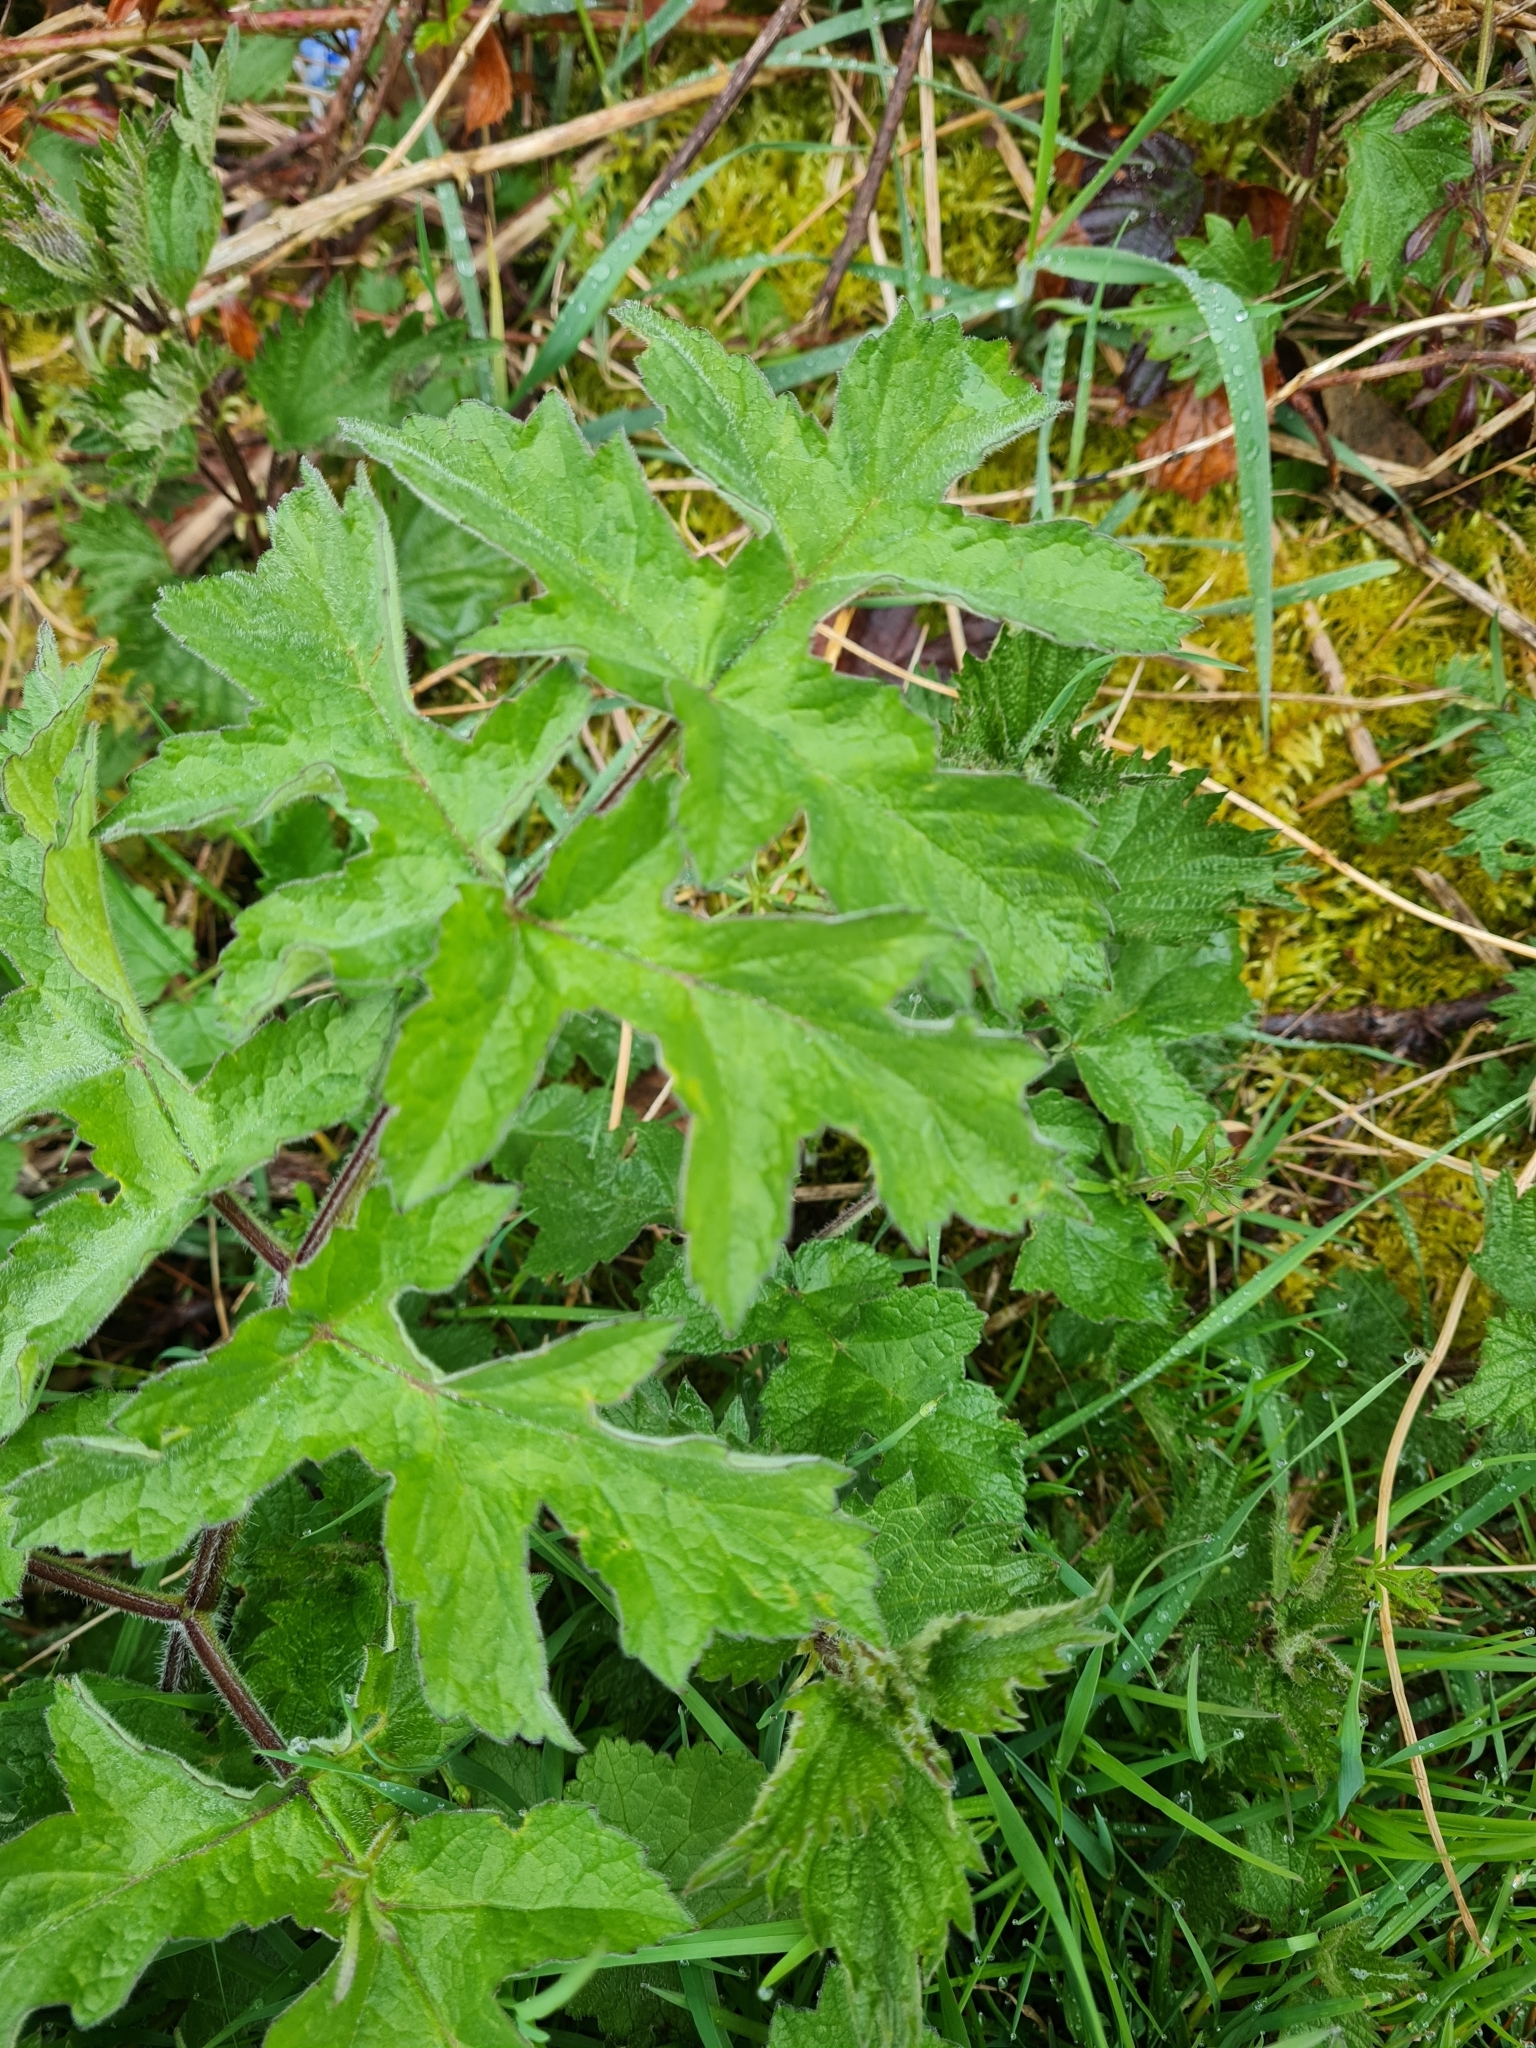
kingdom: Plantae
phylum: Tracheophyta
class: Magnoliopsida
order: Apiales
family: Apiaceae
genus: Heracleum
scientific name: Heracleum sphondylium
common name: Hogweed
